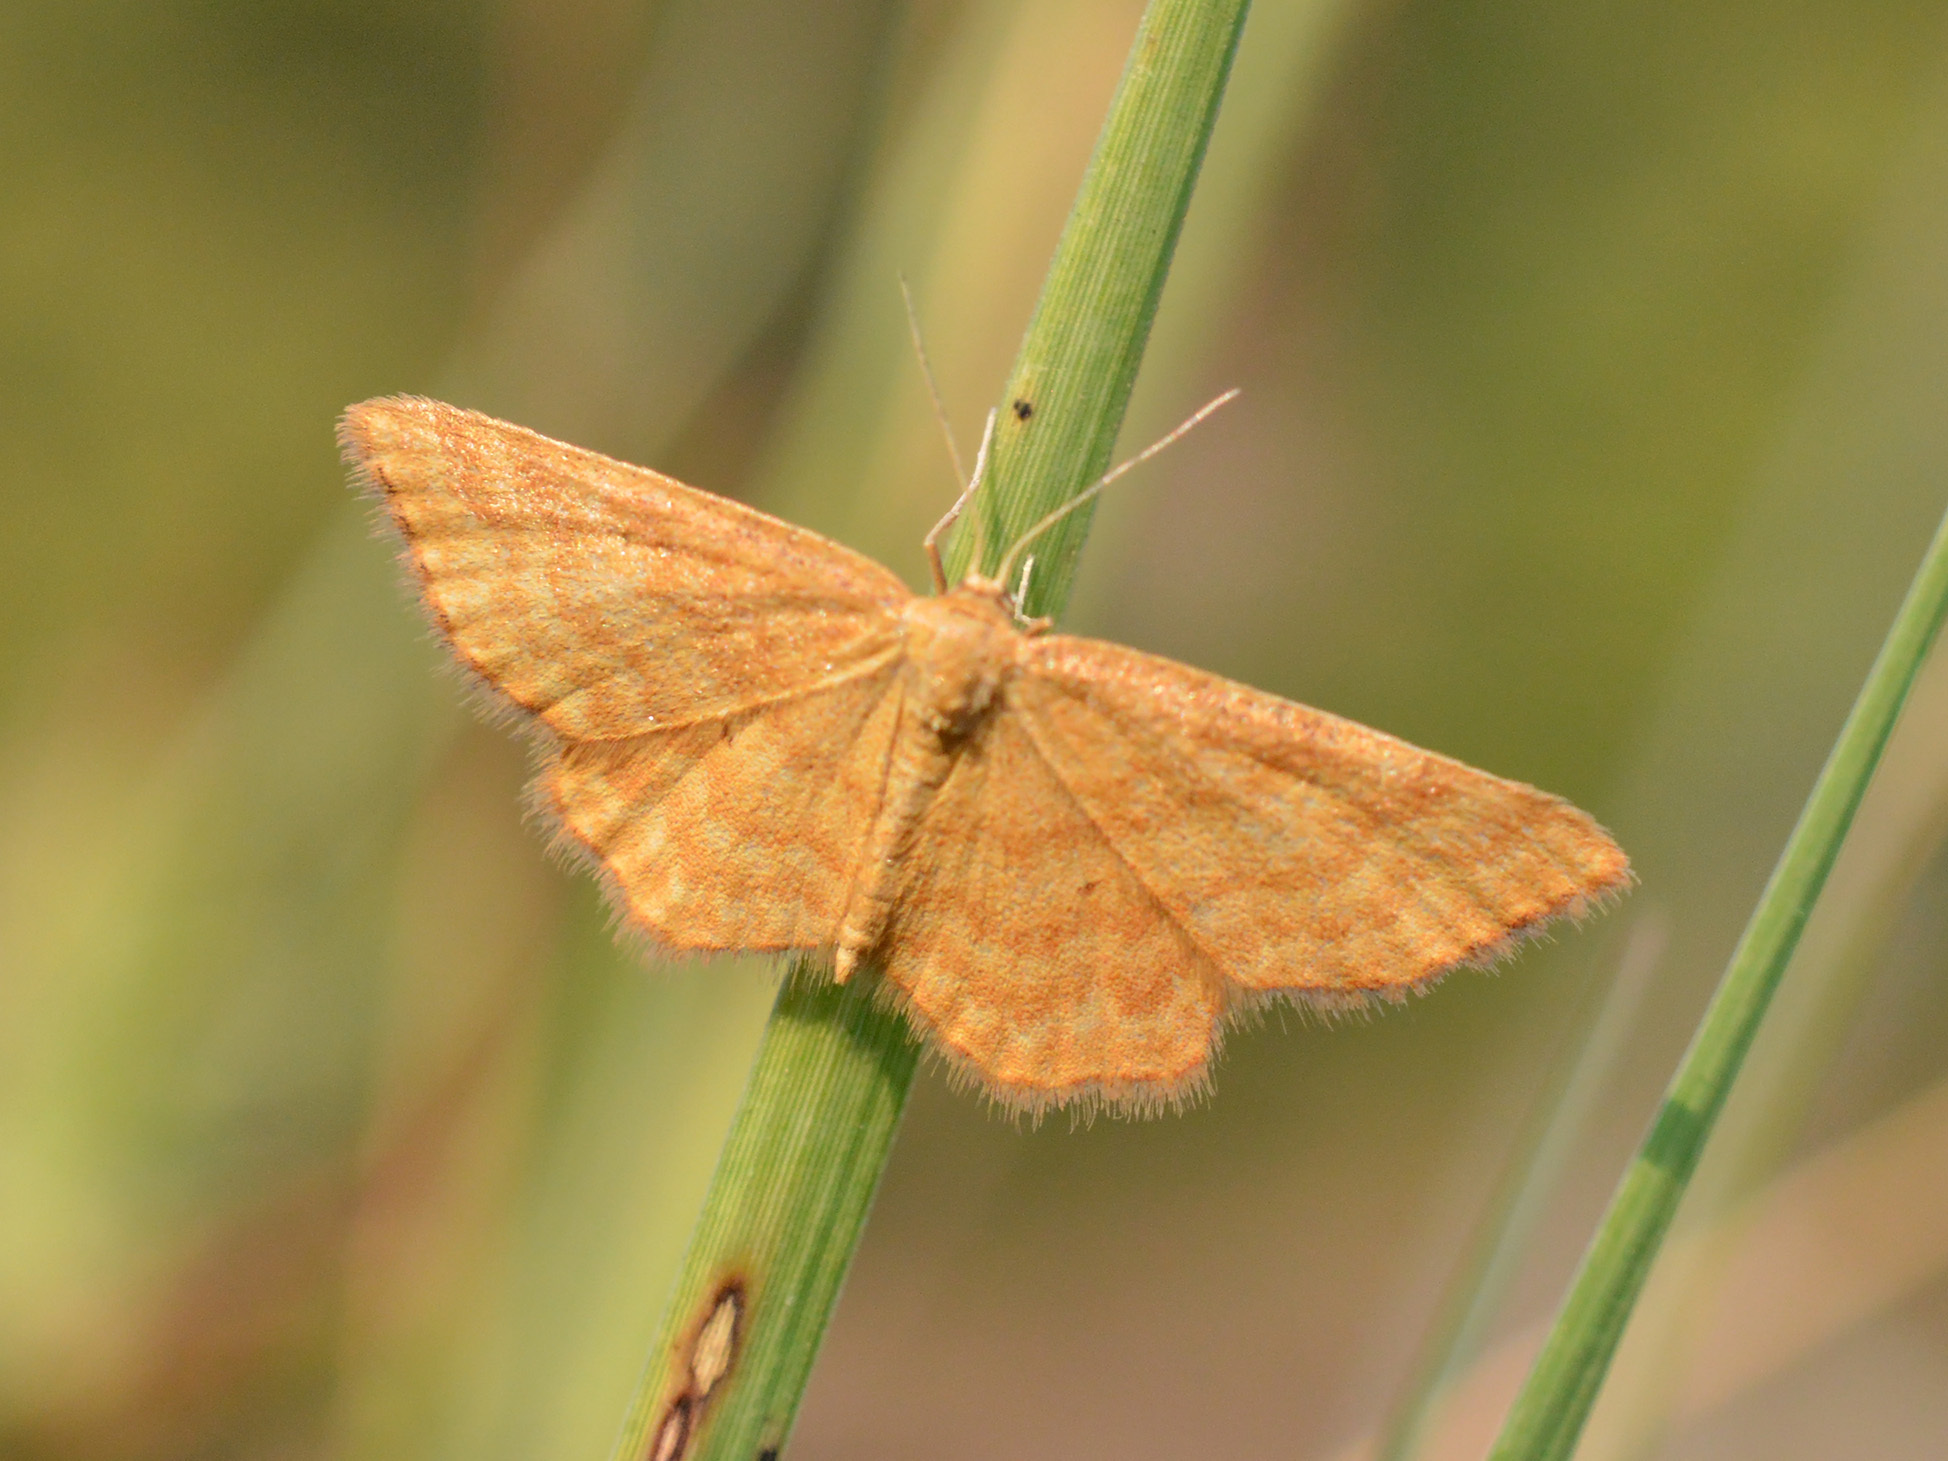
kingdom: Animalia
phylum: Arthropoda
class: Insecta
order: Lepidoptera
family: Geometridae
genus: Idaea
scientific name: Idaea serpentata
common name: Ochraceous wave
